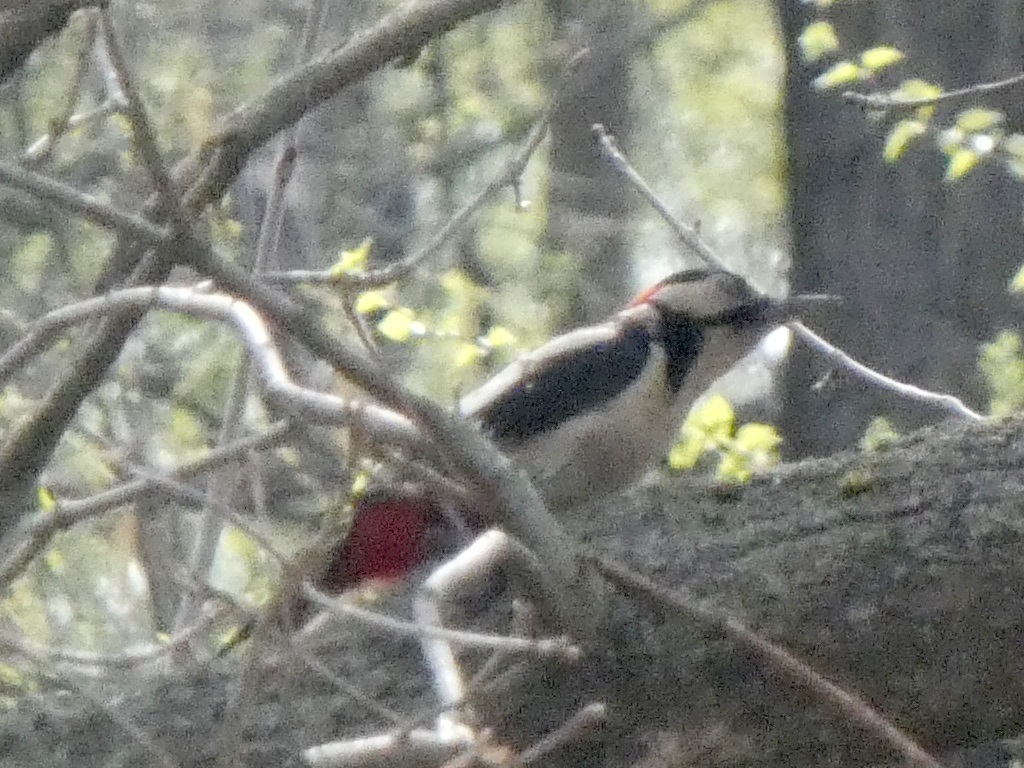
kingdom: Animalia
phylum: Chordata
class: Aves
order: Piciformes
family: Picidae
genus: Dendrocopos
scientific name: Dendrocopos major
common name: Great spotted woodpecker
